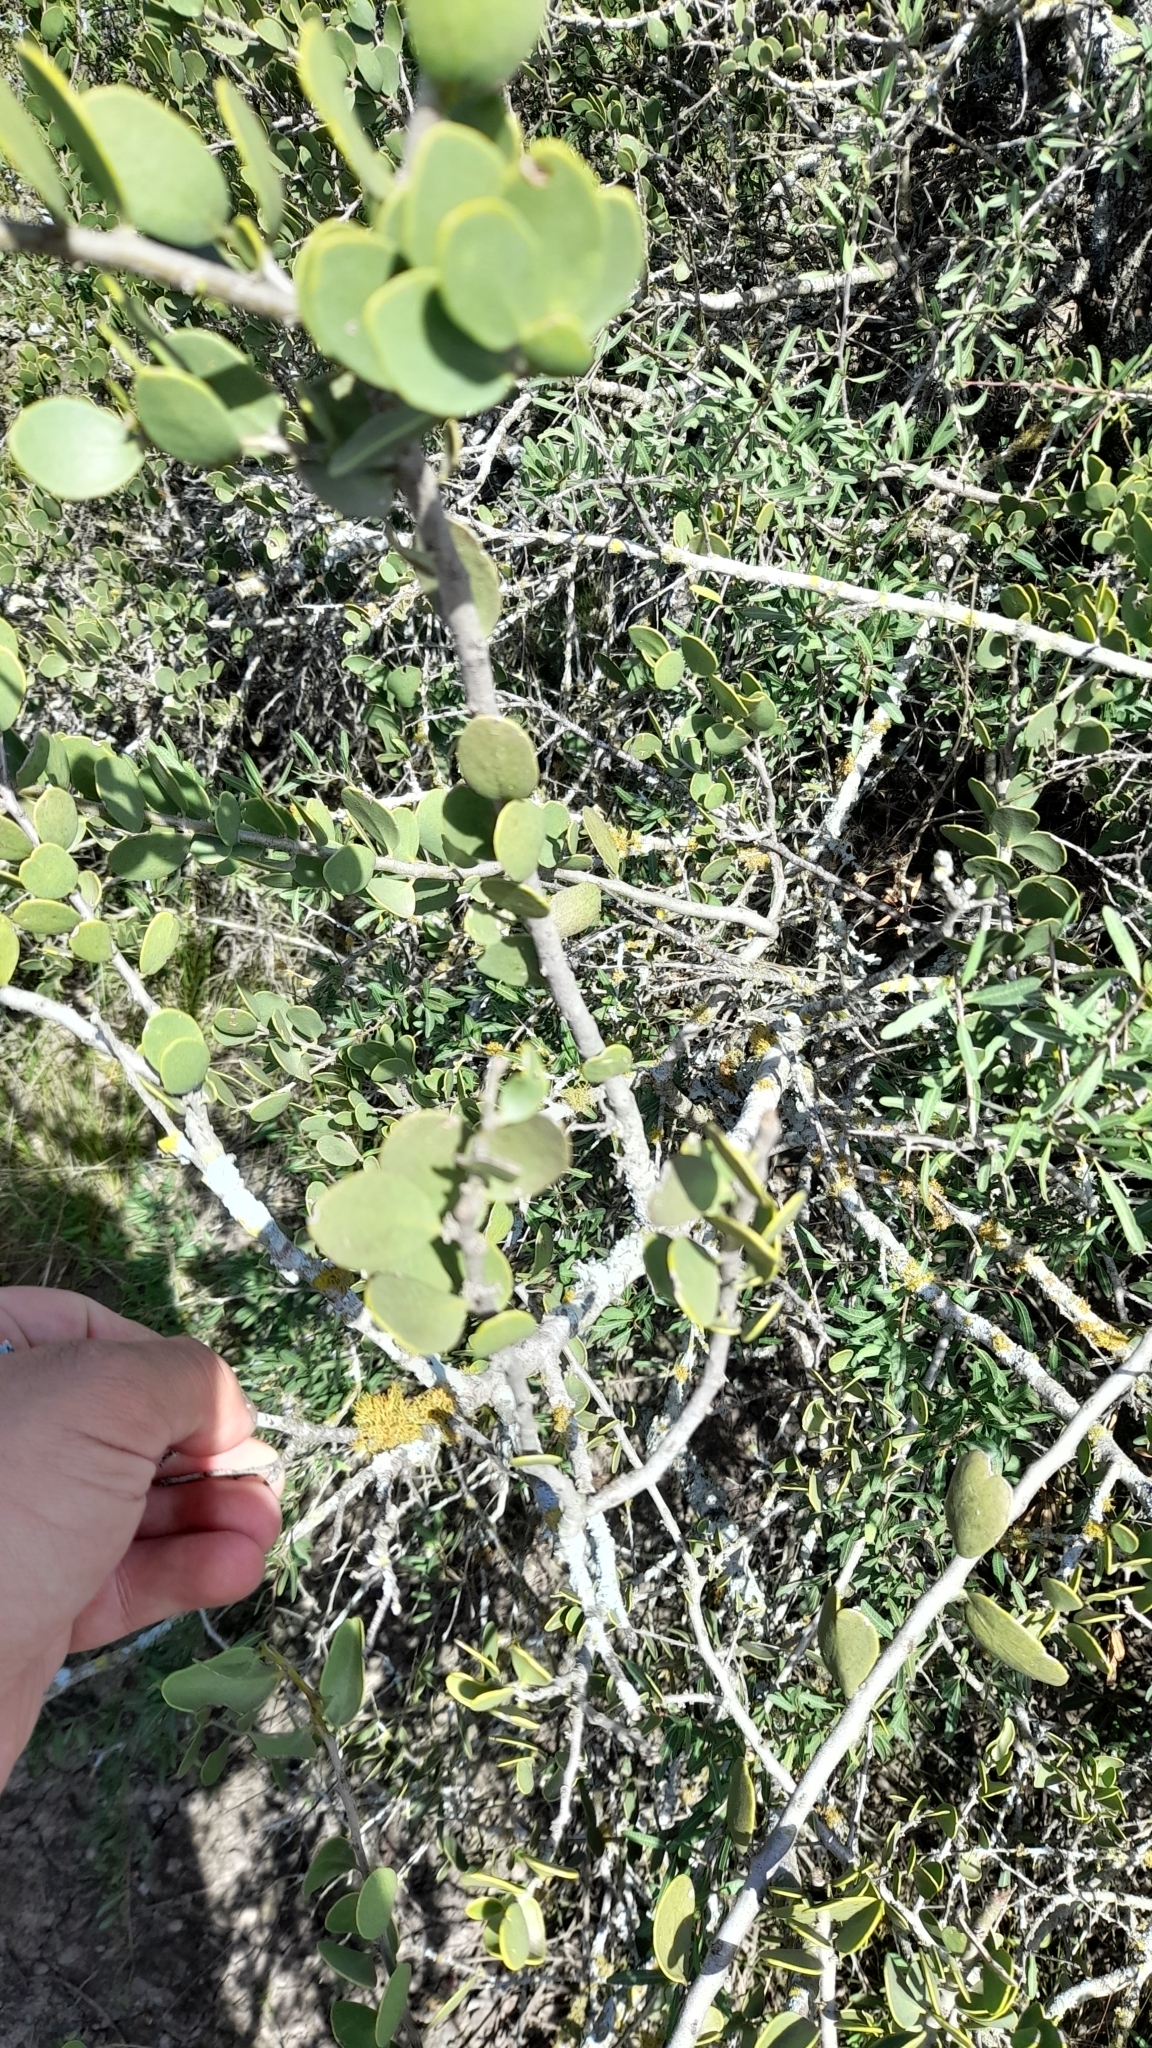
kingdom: Plantae
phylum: Tracheophyta
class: Magnoliopsida
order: Celastrales
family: Celastraceae
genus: Tricerma
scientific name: Tricerma vitis-idaeum
